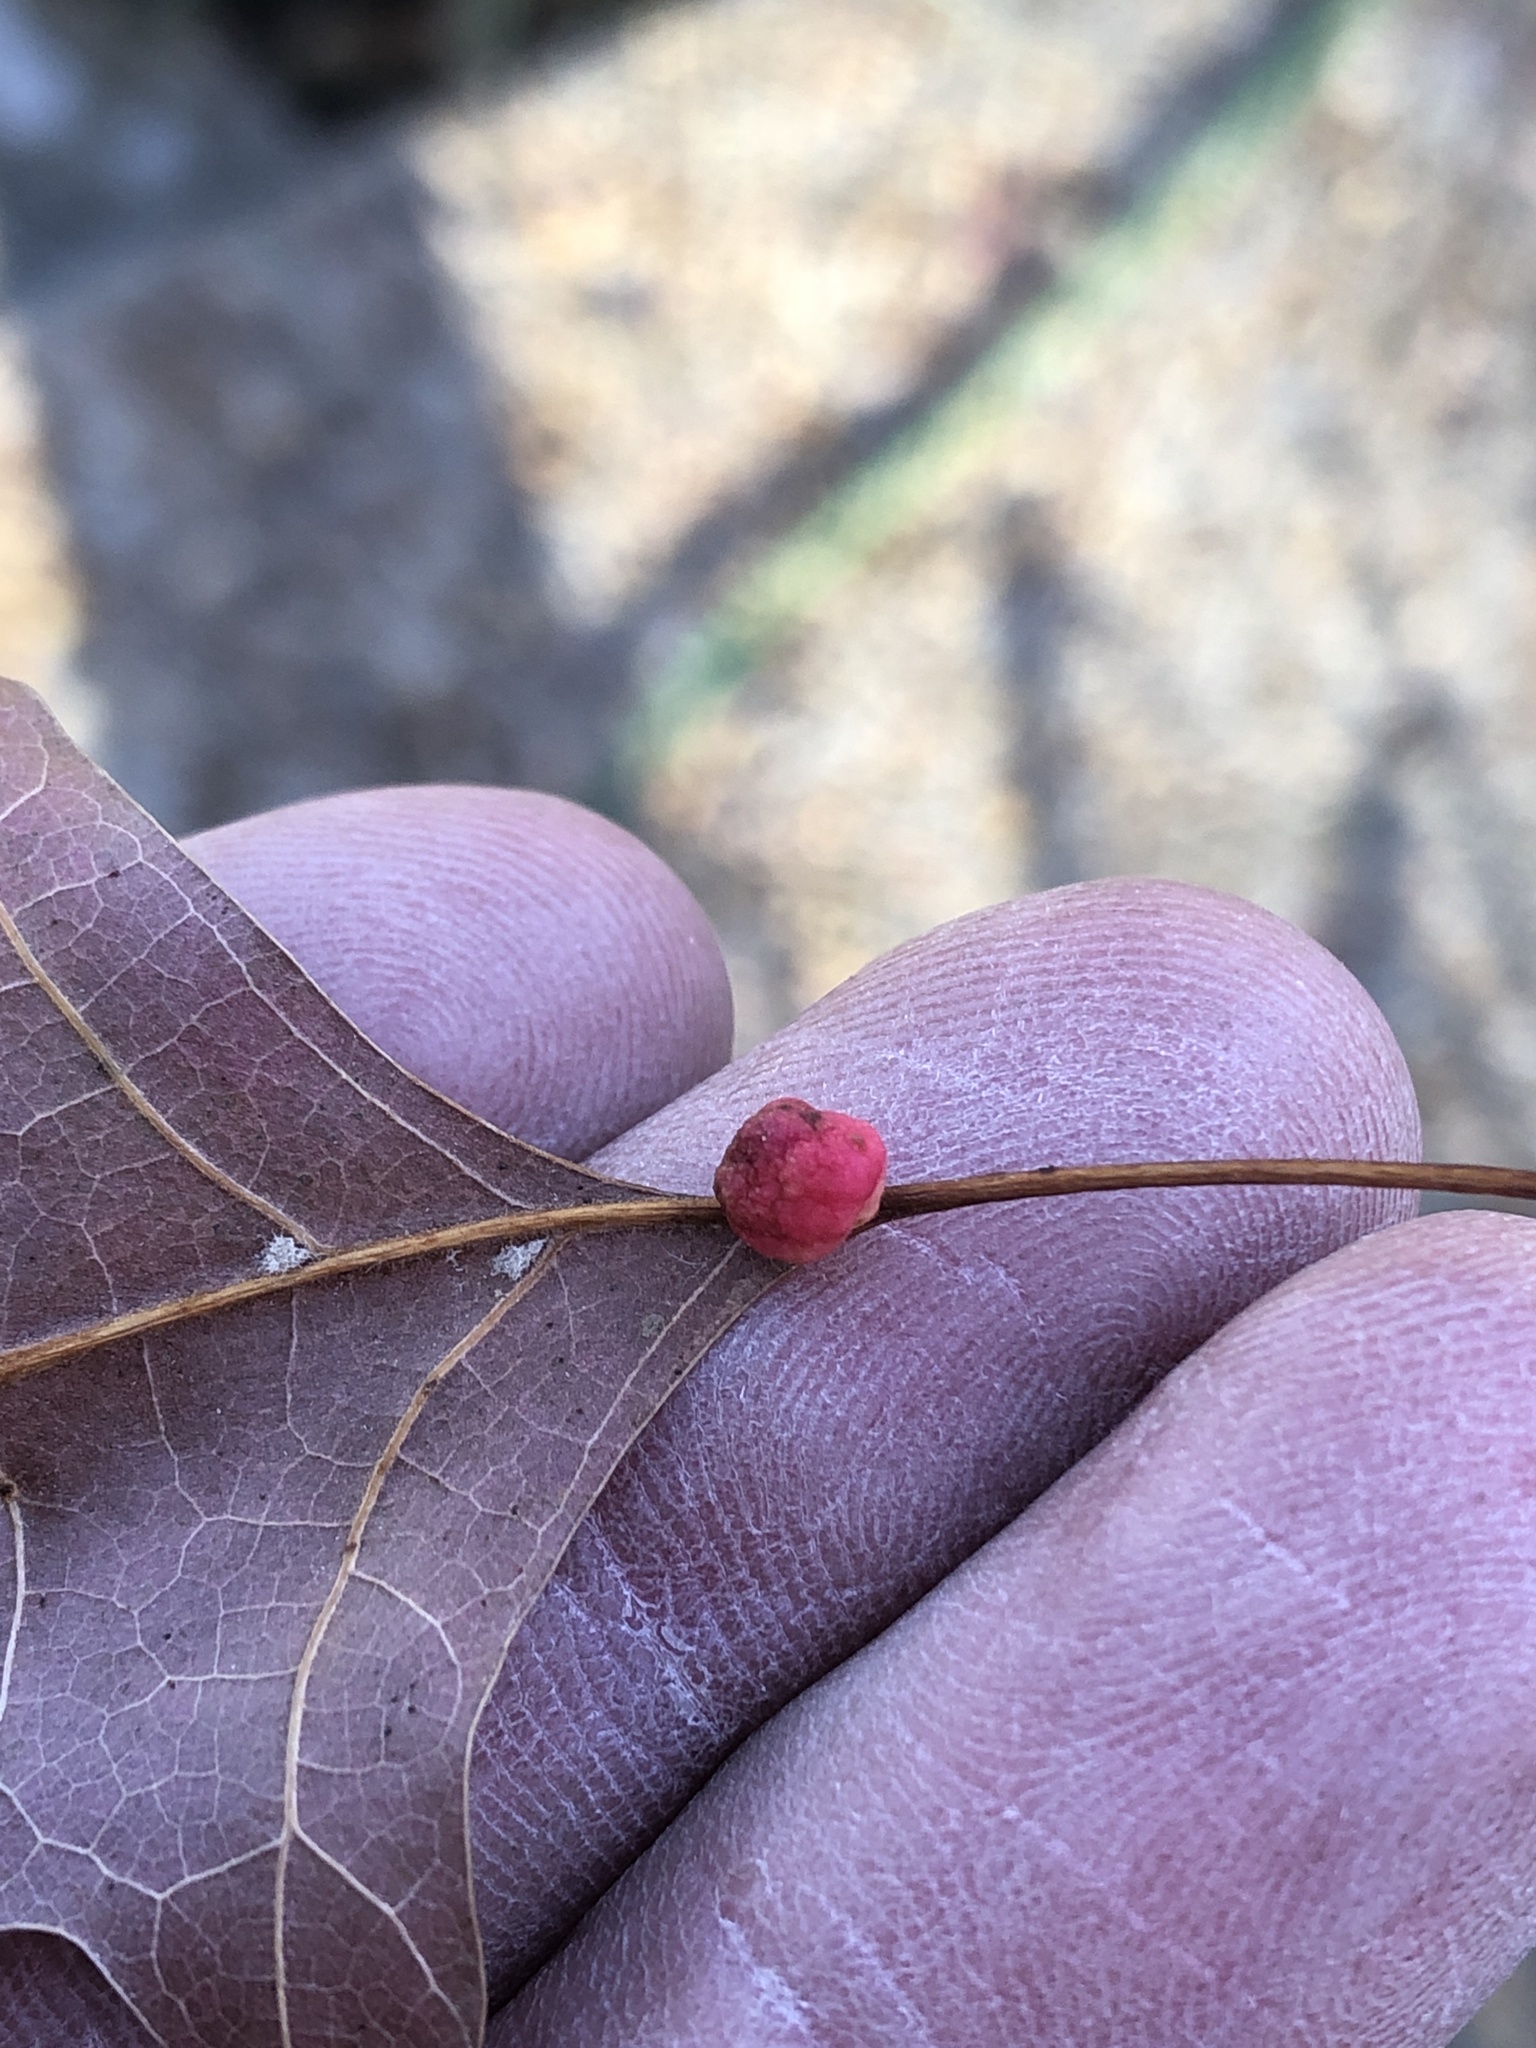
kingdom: Animalia
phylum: Arthropoda
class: Insecta
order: Hymenoptera
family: Cynipidae
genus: Callirhytis
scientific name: Callirhytis
